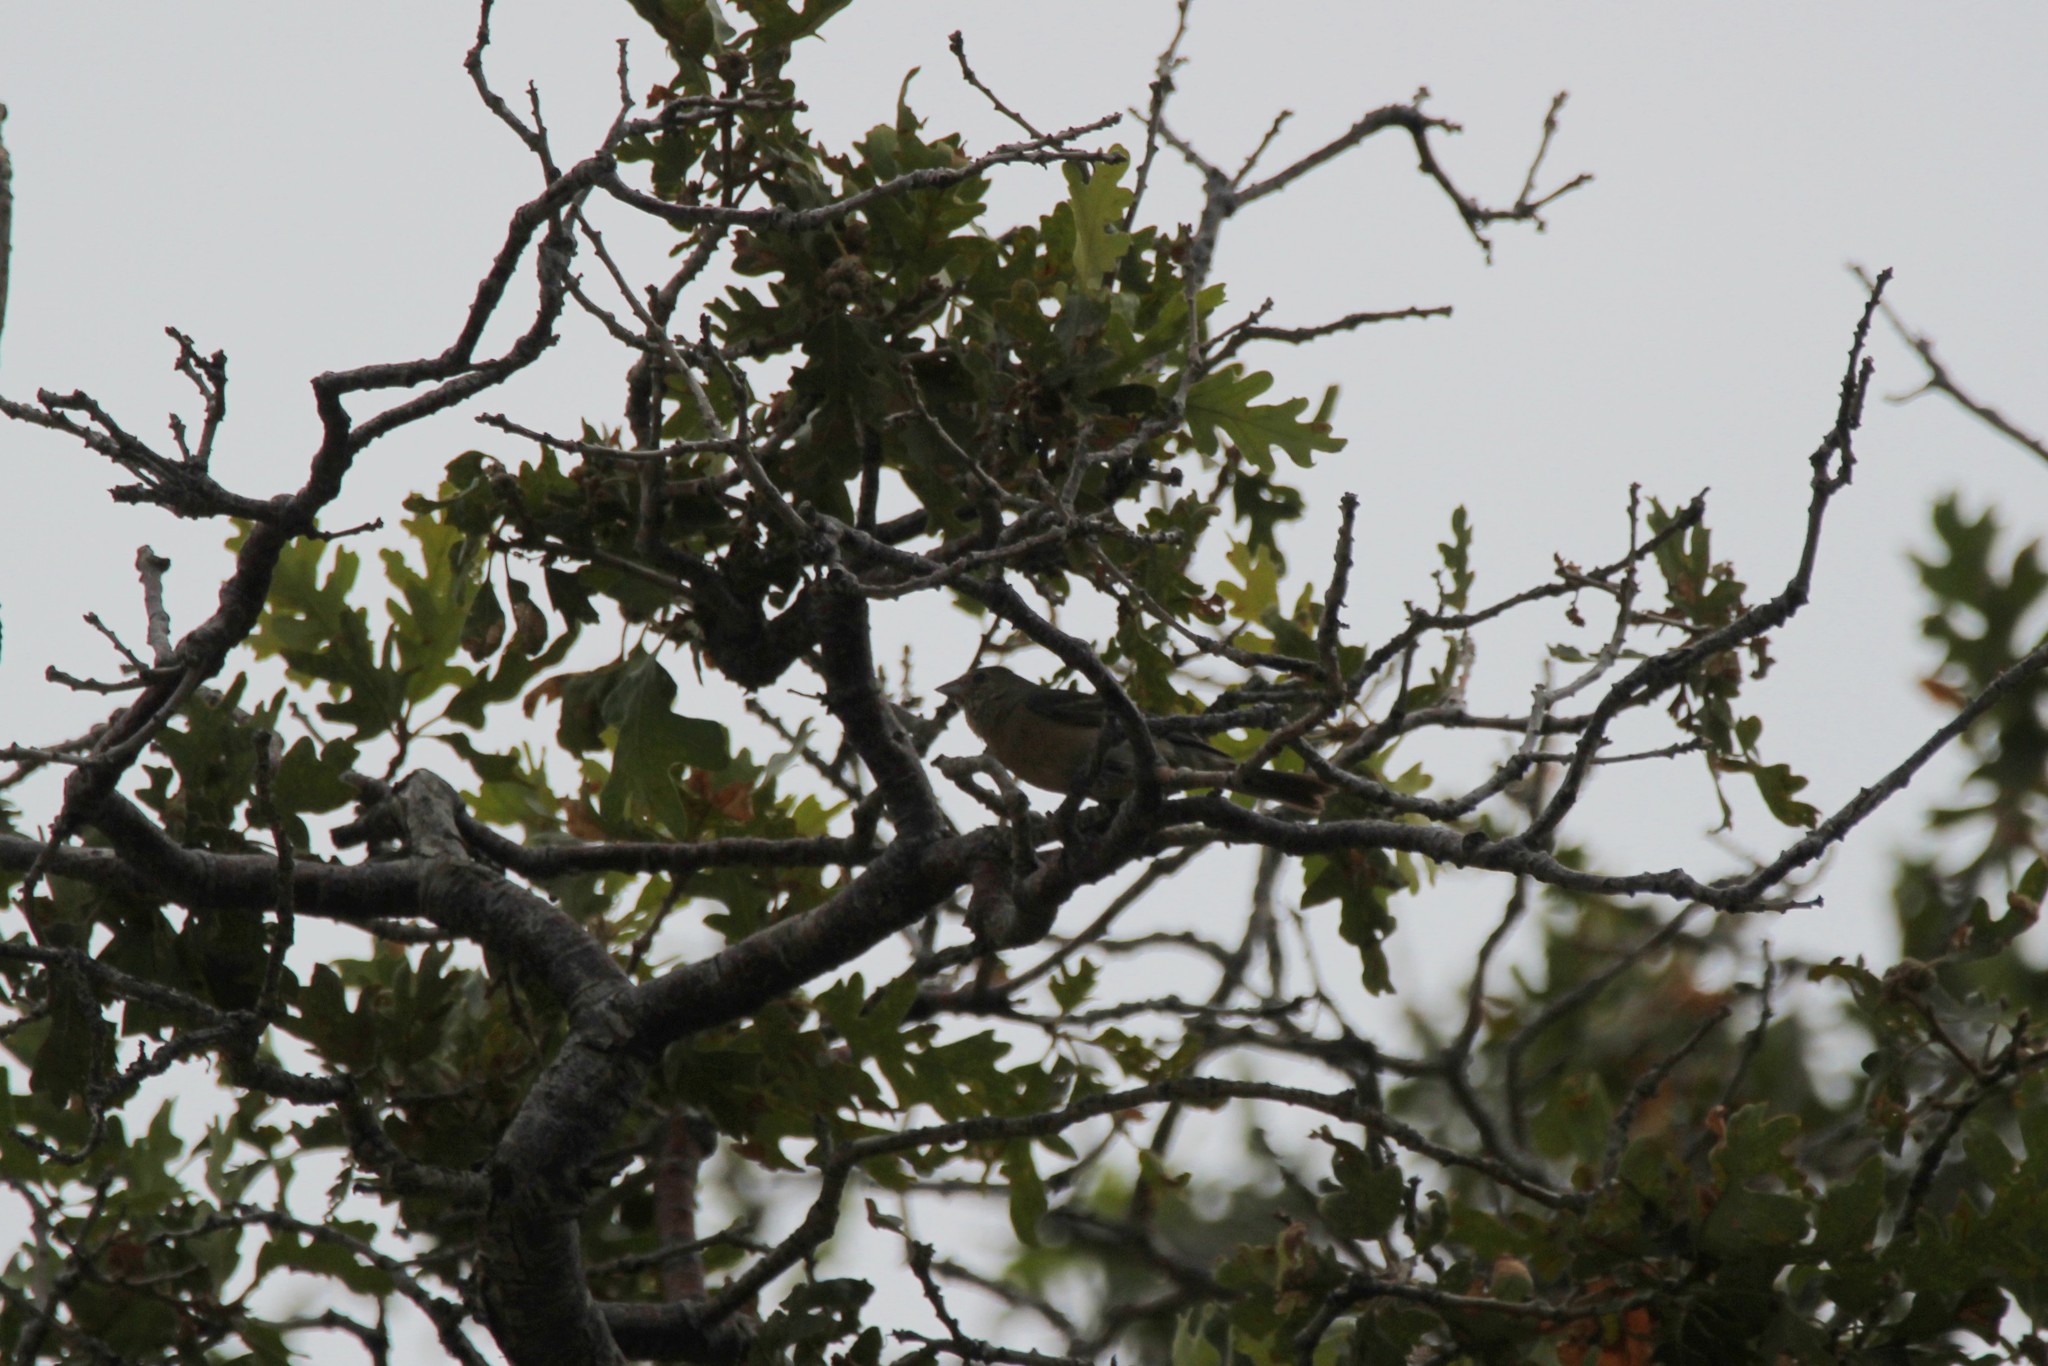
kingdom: Animalia
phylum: Chordata
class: Aves
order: Passeriformes
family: Cardinalidae
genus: Passerina
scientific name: Passerina amoena
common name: Lazuli bunting
